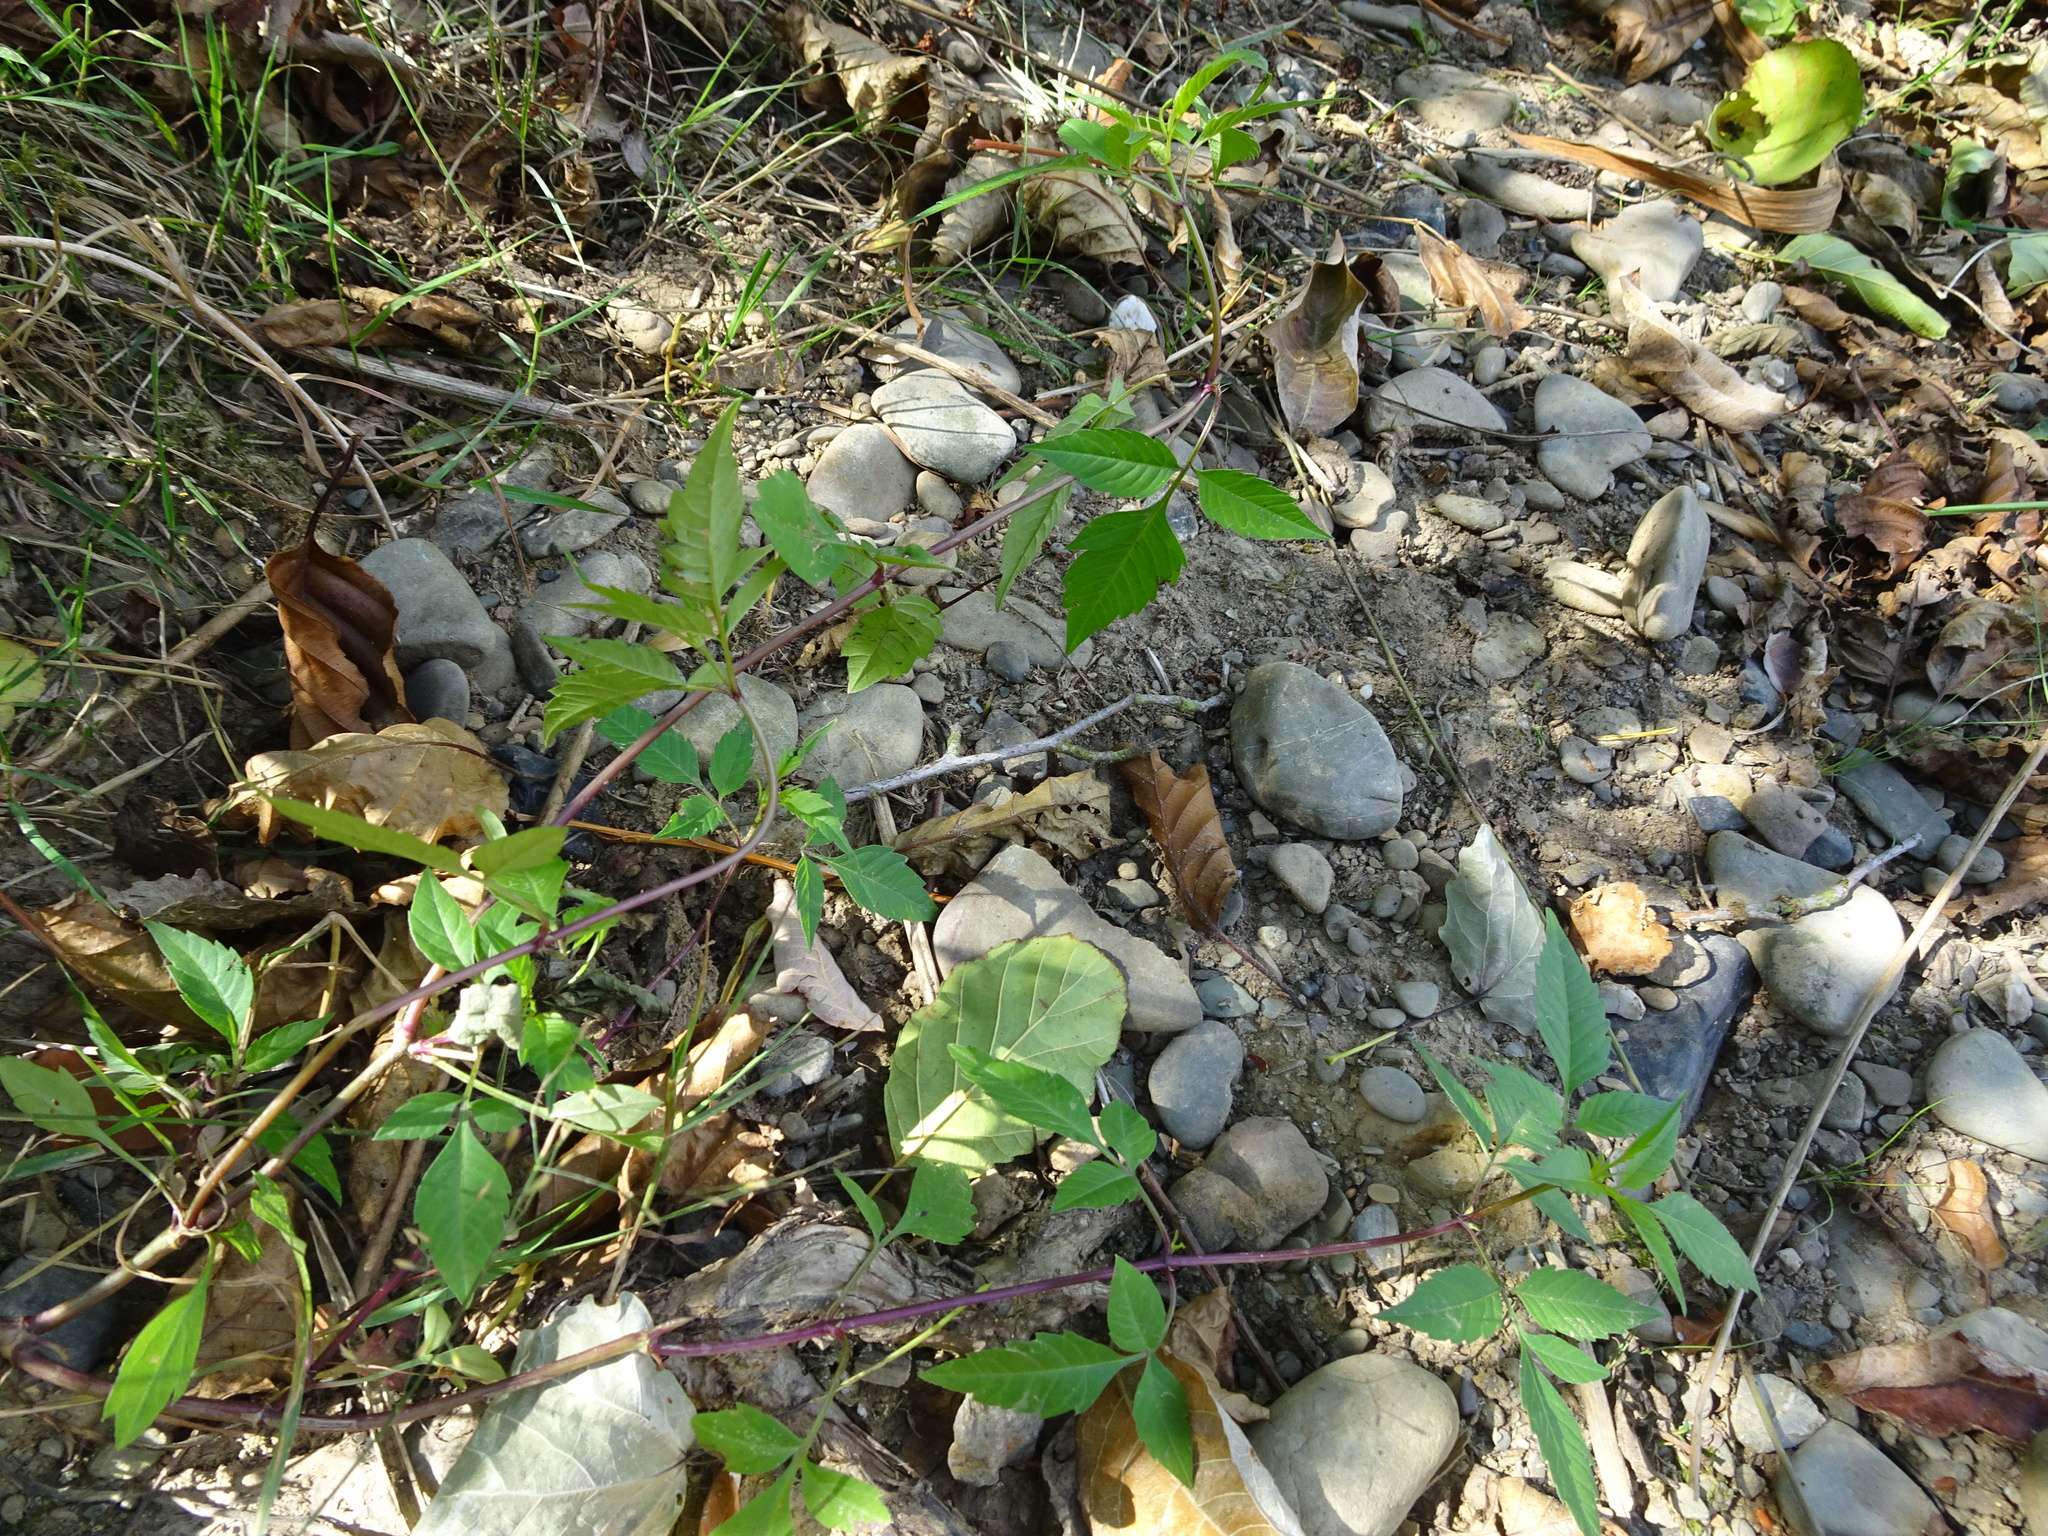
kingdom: Plantae
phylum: Tracheophyta
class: Magnoliopsida
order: Asterales
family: Asteraceae
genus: Bidens
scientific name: Bidens frondosa
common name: Beggarticks
